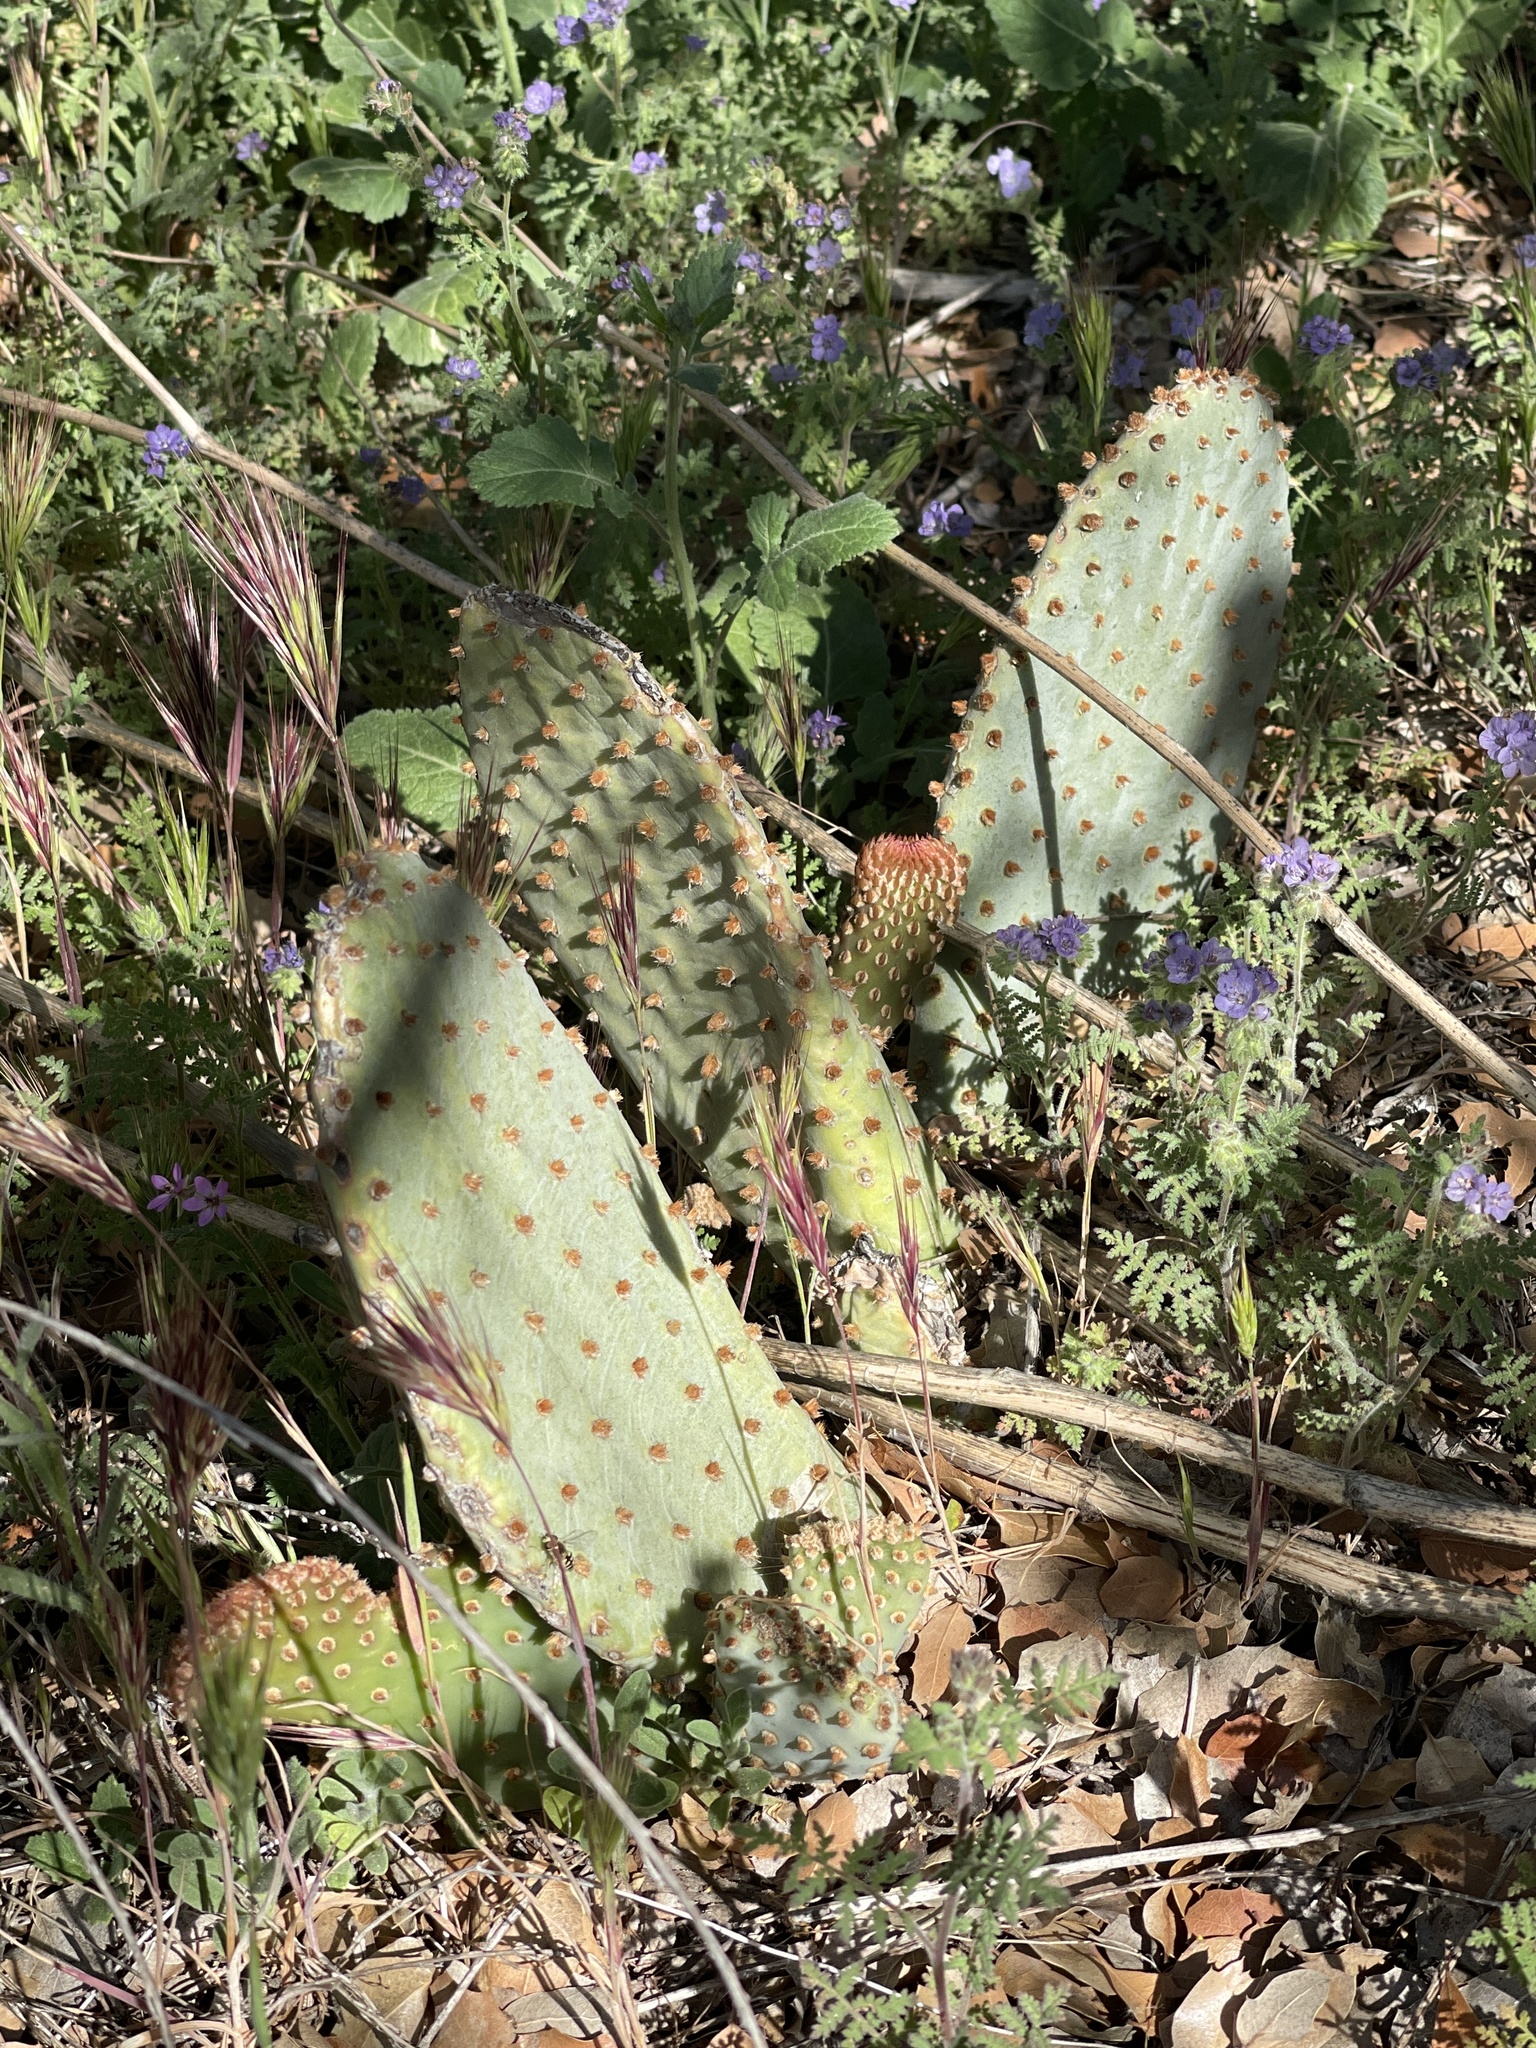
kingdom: Plantae
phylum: Tracheophyta
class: Magnoliopsida
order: Caryophyllales
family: Cactaceae
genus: Opuntia
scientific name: Opuntia basilaris
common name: Beavertail prickly-pear
